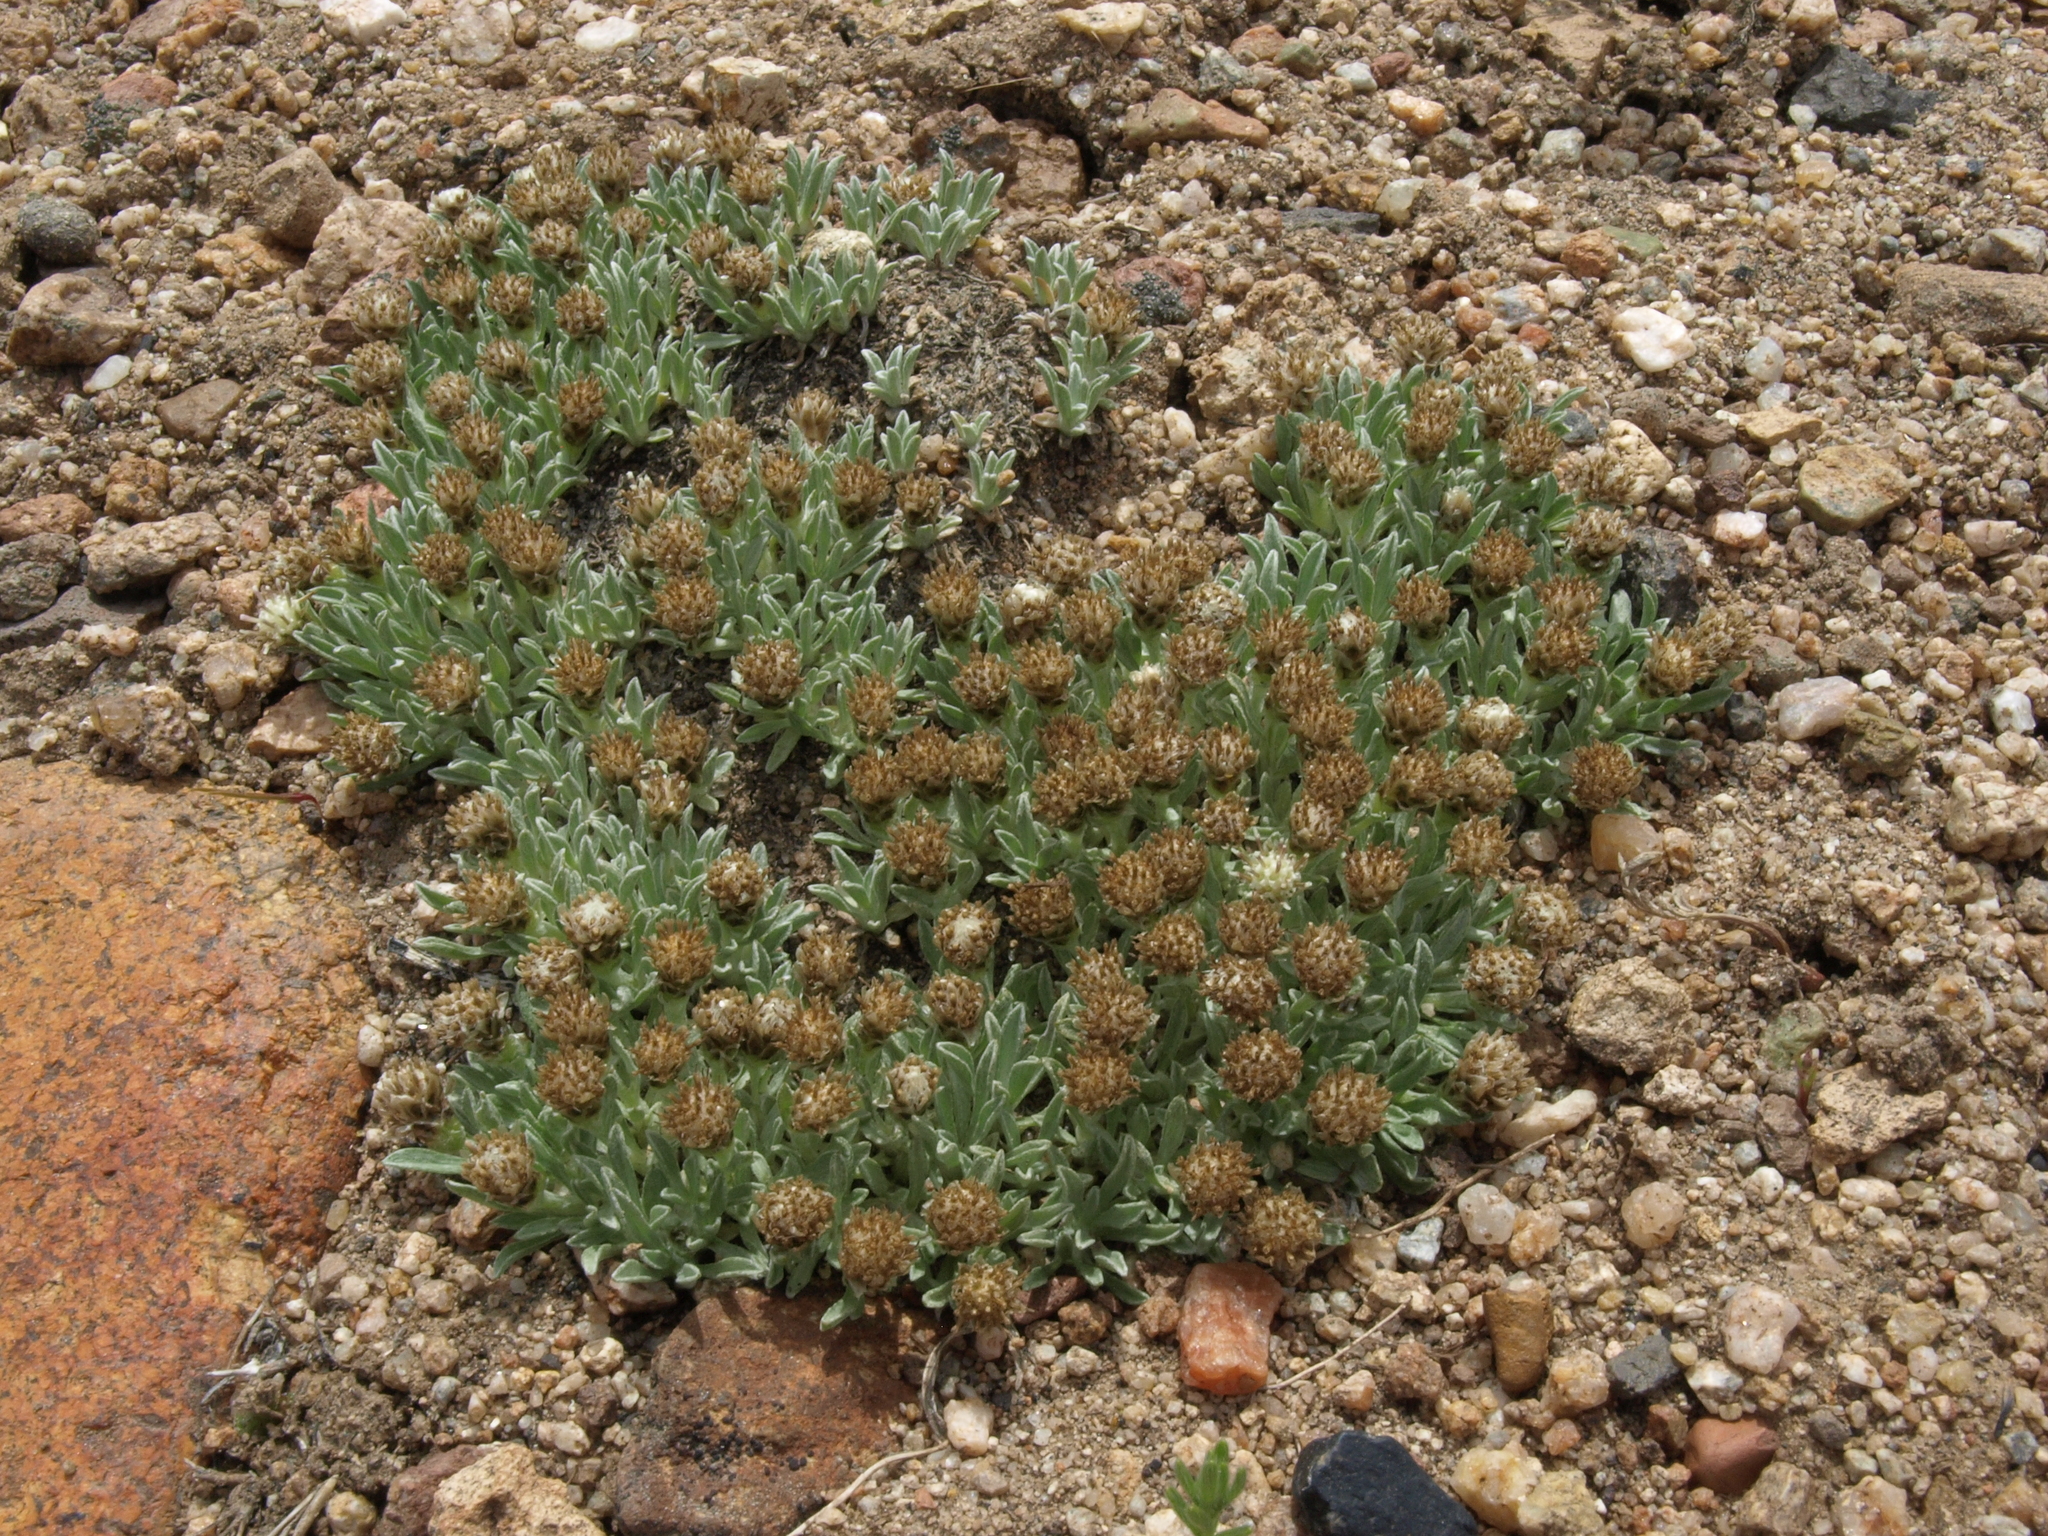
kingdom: Plantae
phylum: Tracheophyta
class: Magnoliopsida
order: Asterales
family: Asteraceae
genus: Antennaria
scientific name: Antennaria dimorpha
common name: Cushion pussytoes
